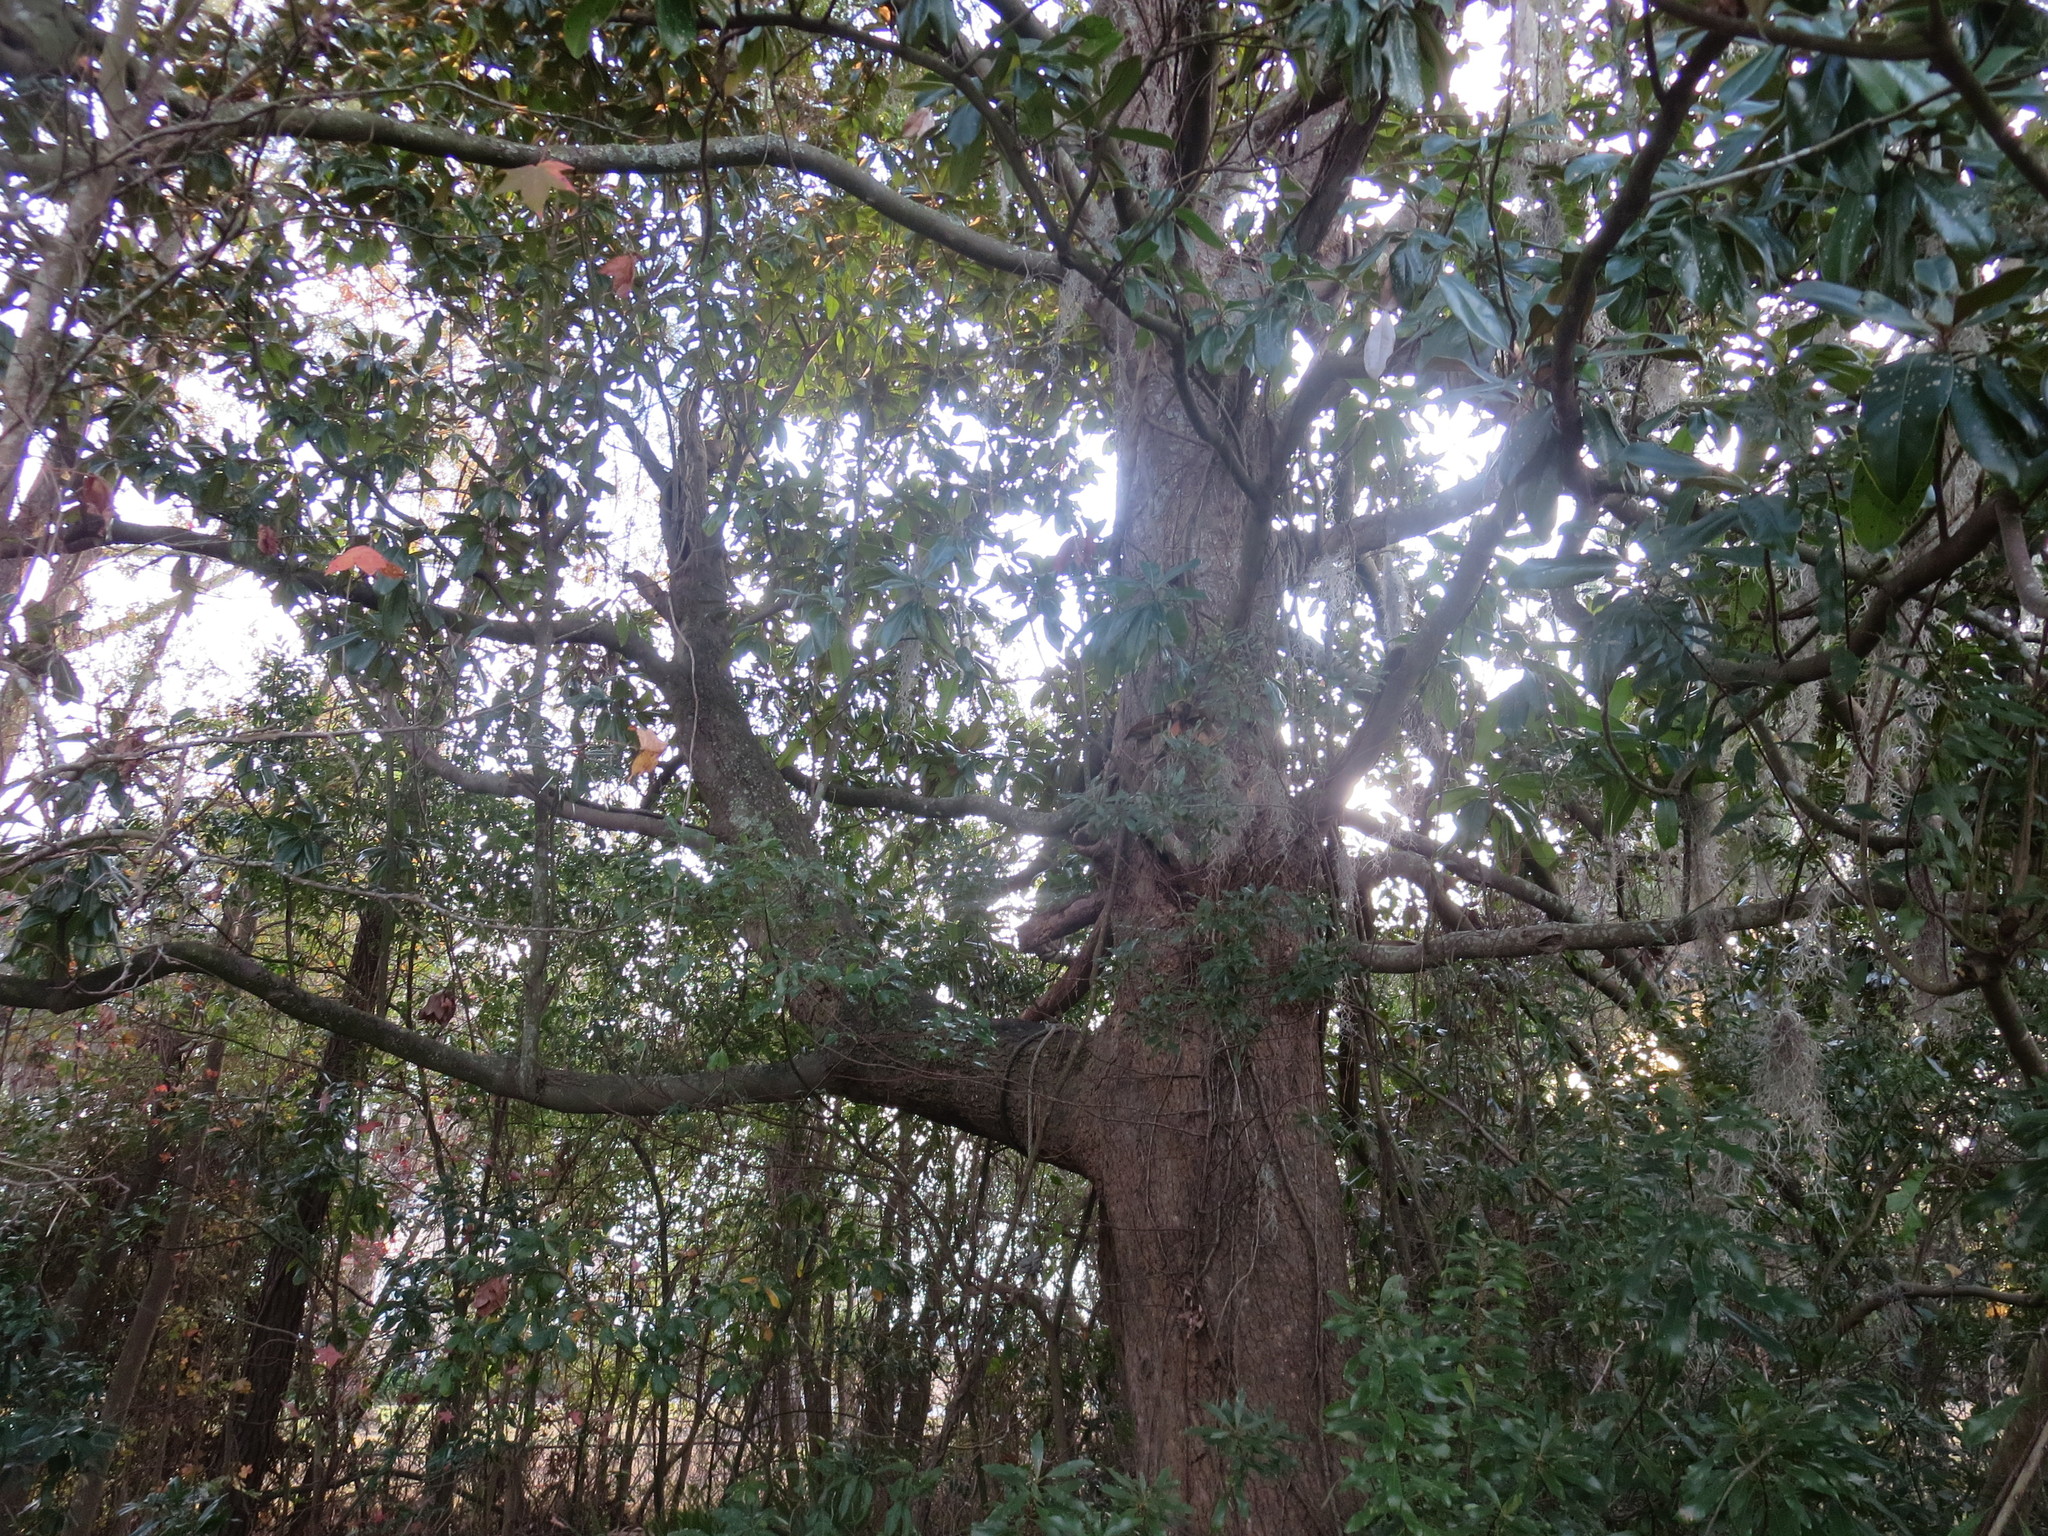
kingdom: Plantae
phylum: Tracheophyta
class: Magnoliopsida
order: Magnoliales
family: Magnoliaceae
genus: Magnolia
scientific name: Magnolia grandiflora
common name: Southern magnolia
